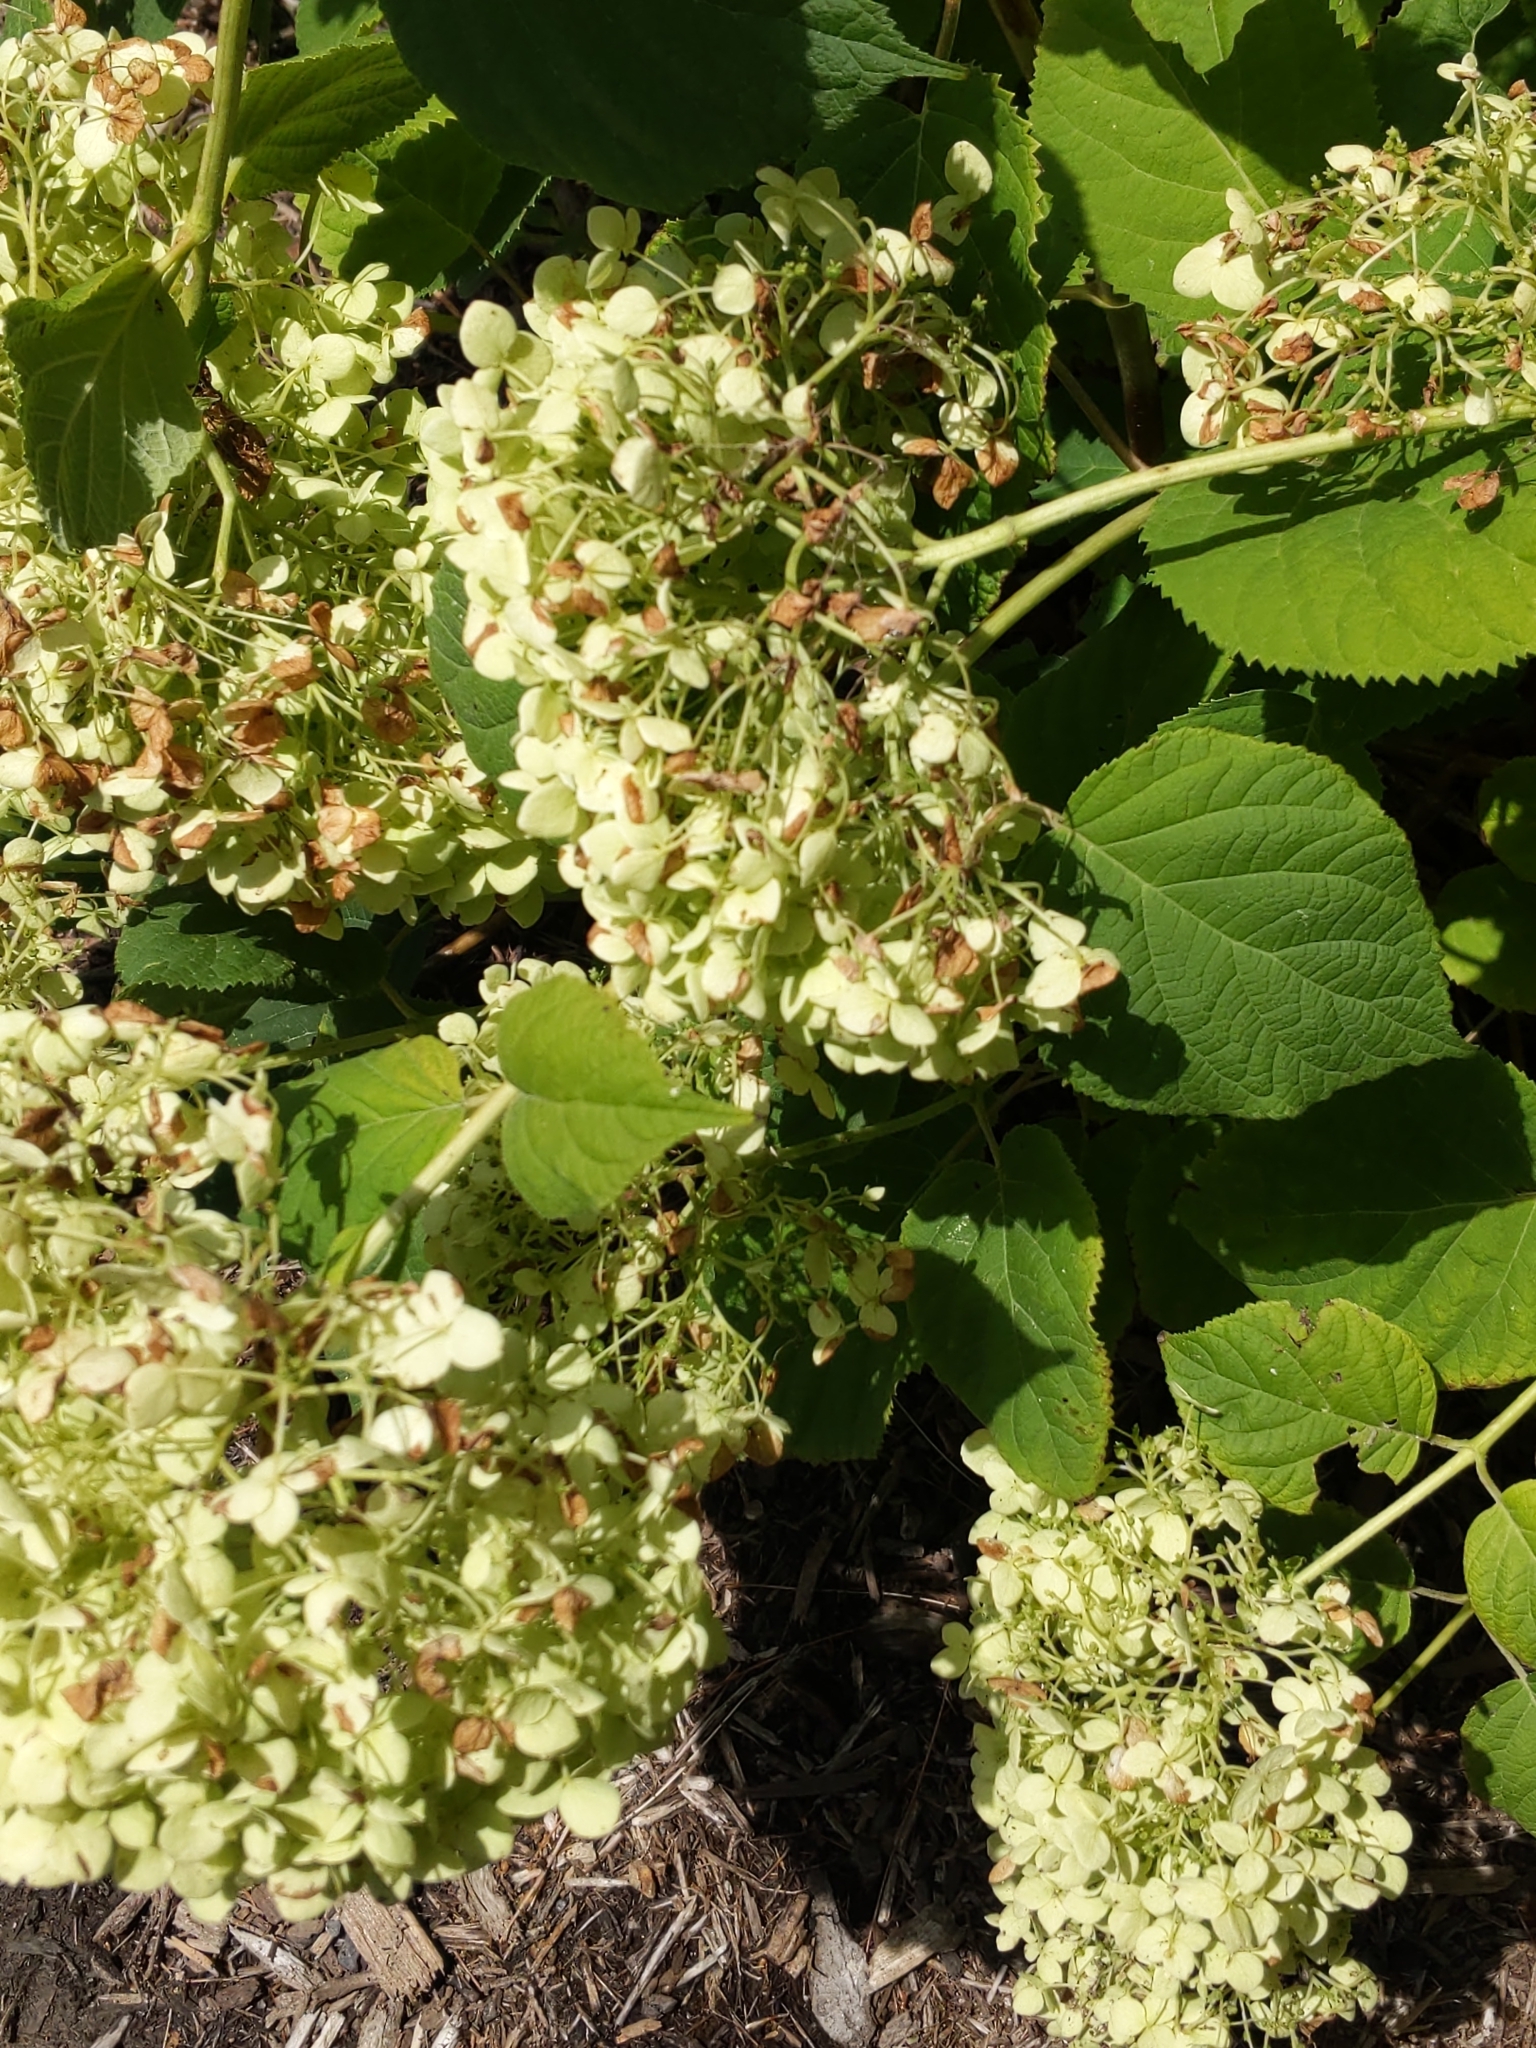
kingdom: Animalia
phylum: Arthropoda
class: Insecta
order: Lepidoptera
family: Heliozelidae
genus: Aspilanta
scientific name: Aspilanta hydrangaeella
